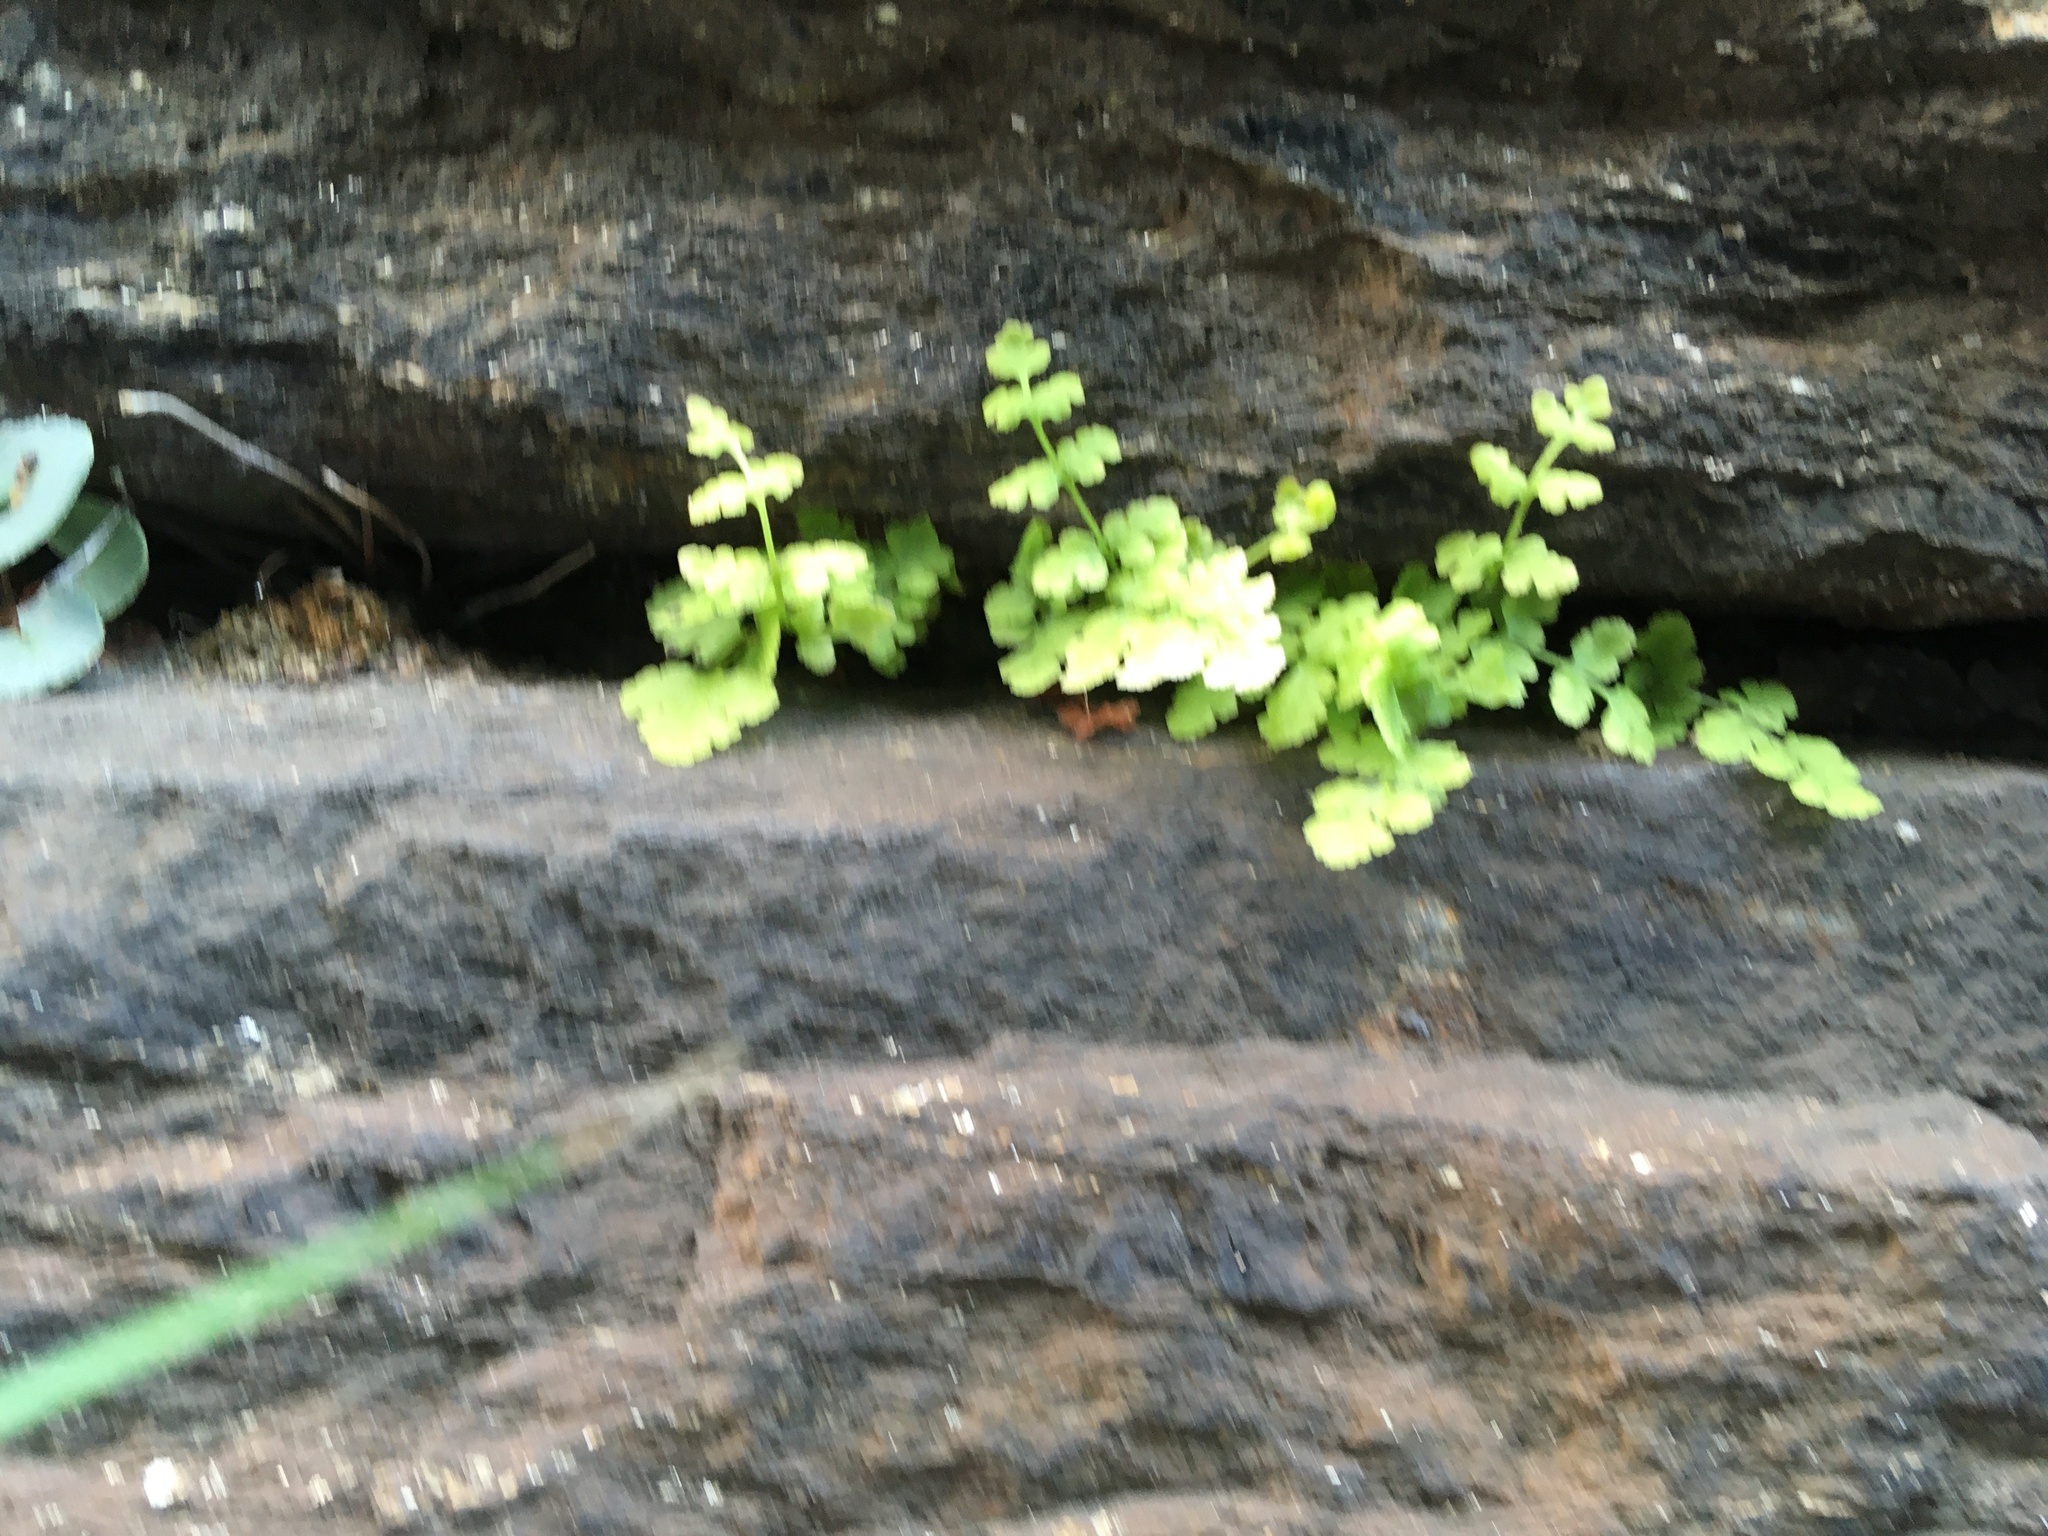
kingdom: Plantae
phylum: Tracheophyta
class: Polypodiopsida
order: Polypodiales
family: Woodsiaceae
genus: Physematium
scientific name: Physematium obtusum
